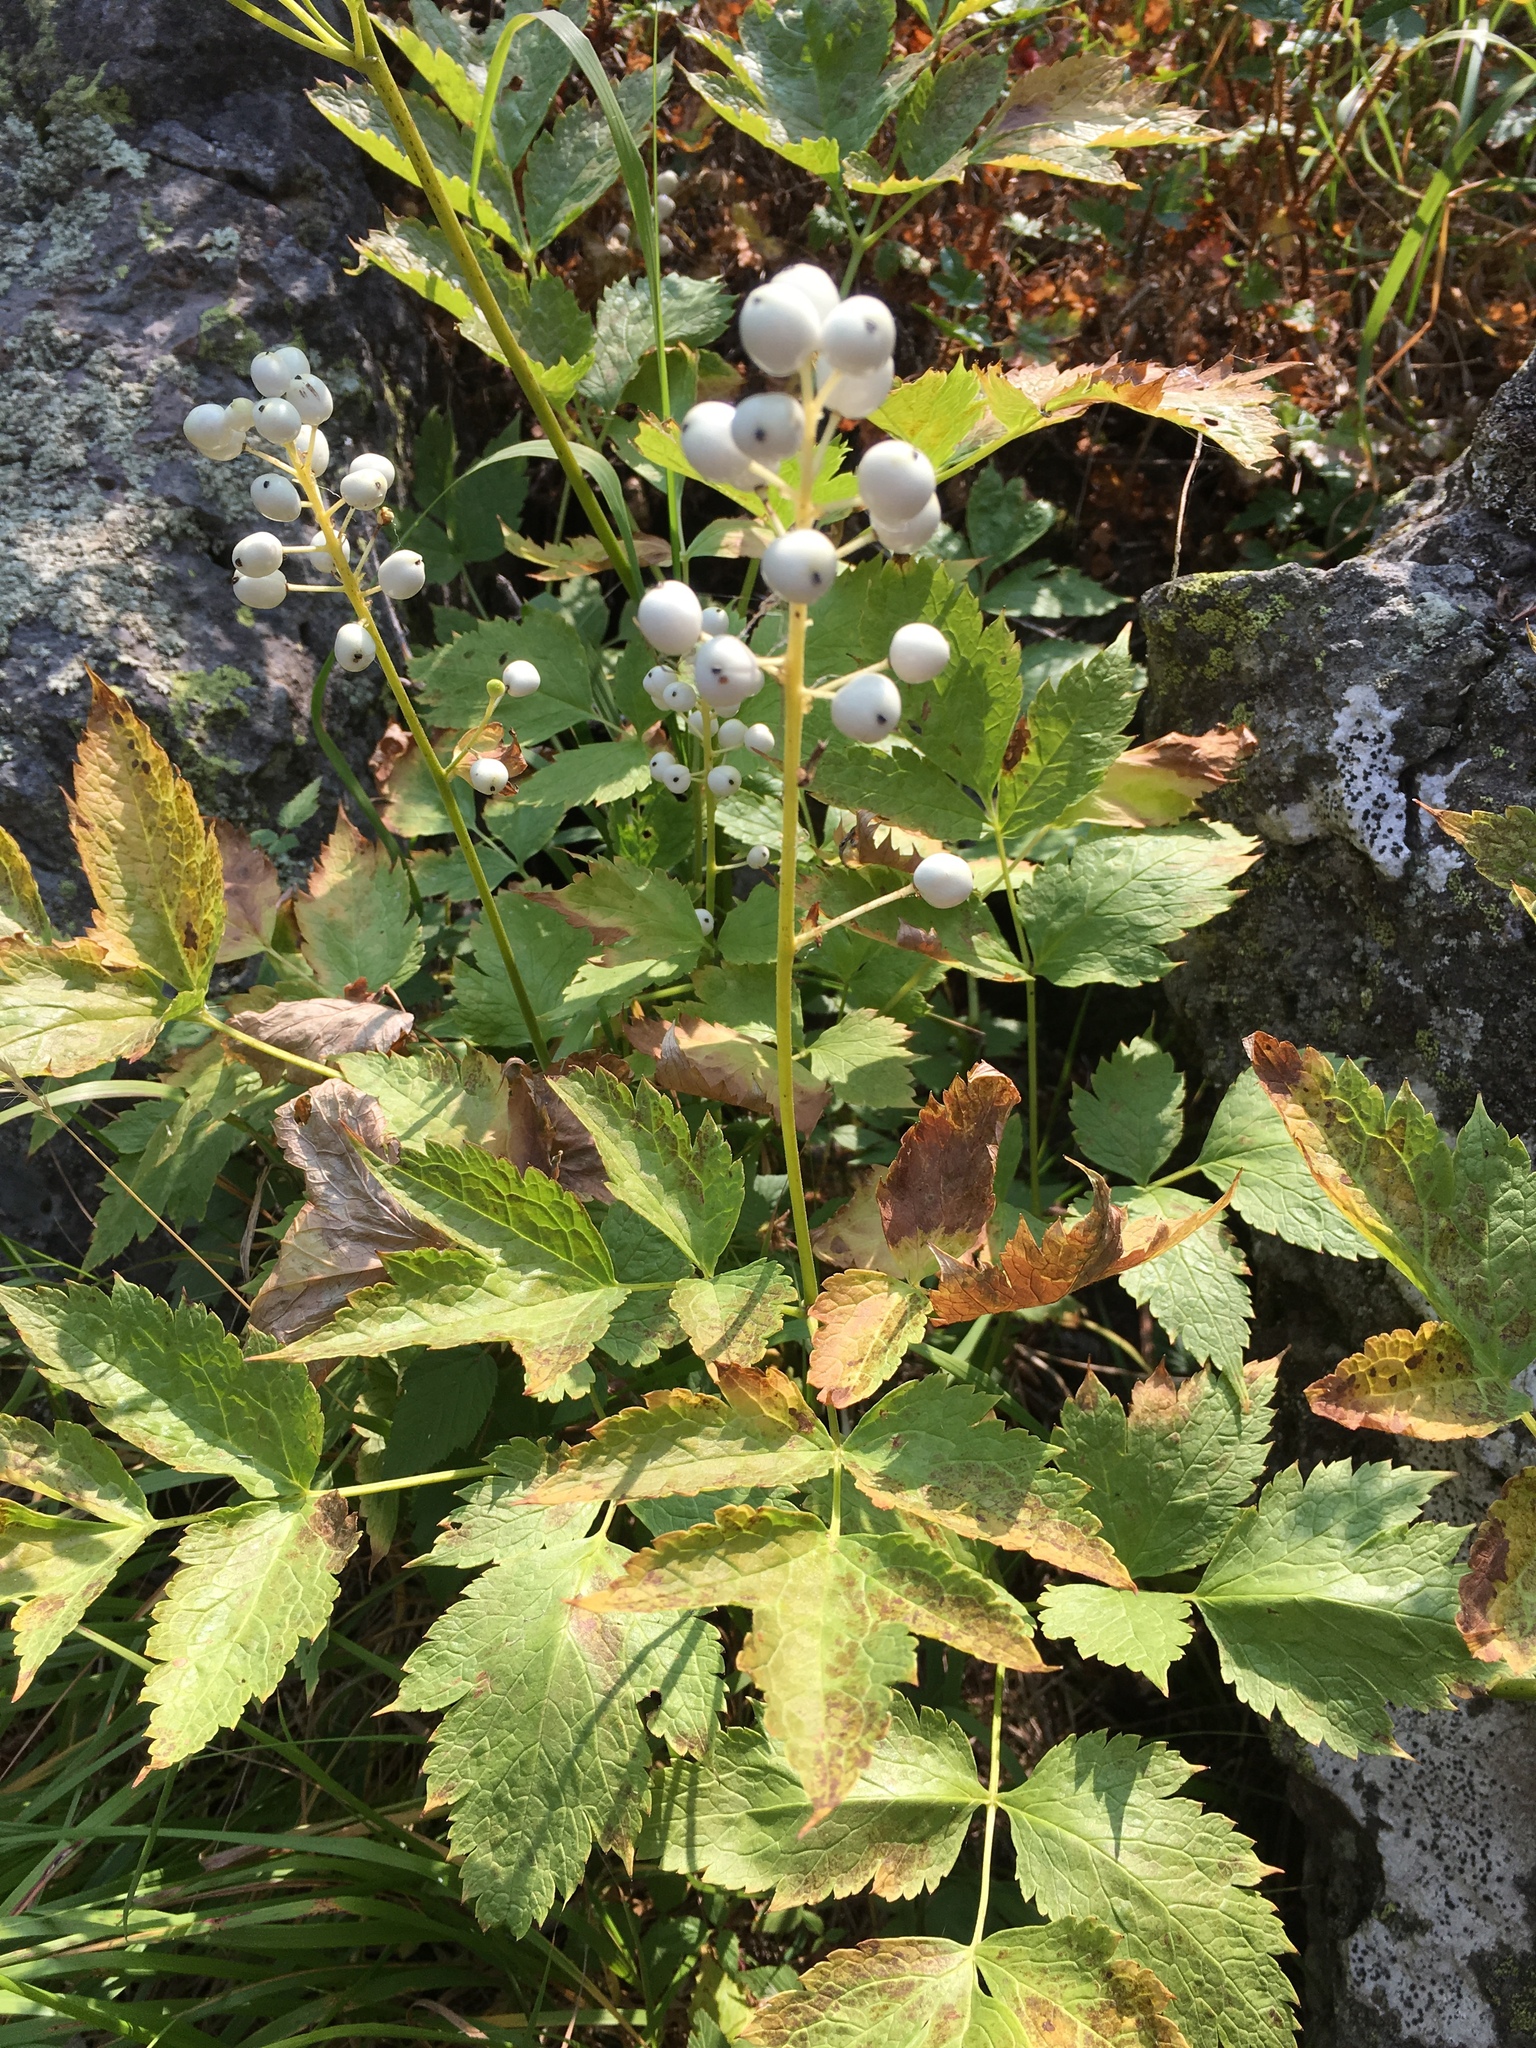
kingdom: Plantae
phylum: Tracheophyta
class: Magnoliopsida
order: Ranunculales
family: Ranunculaceae
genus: Actaea
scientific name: Actaea rubra
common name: Red baneberry
